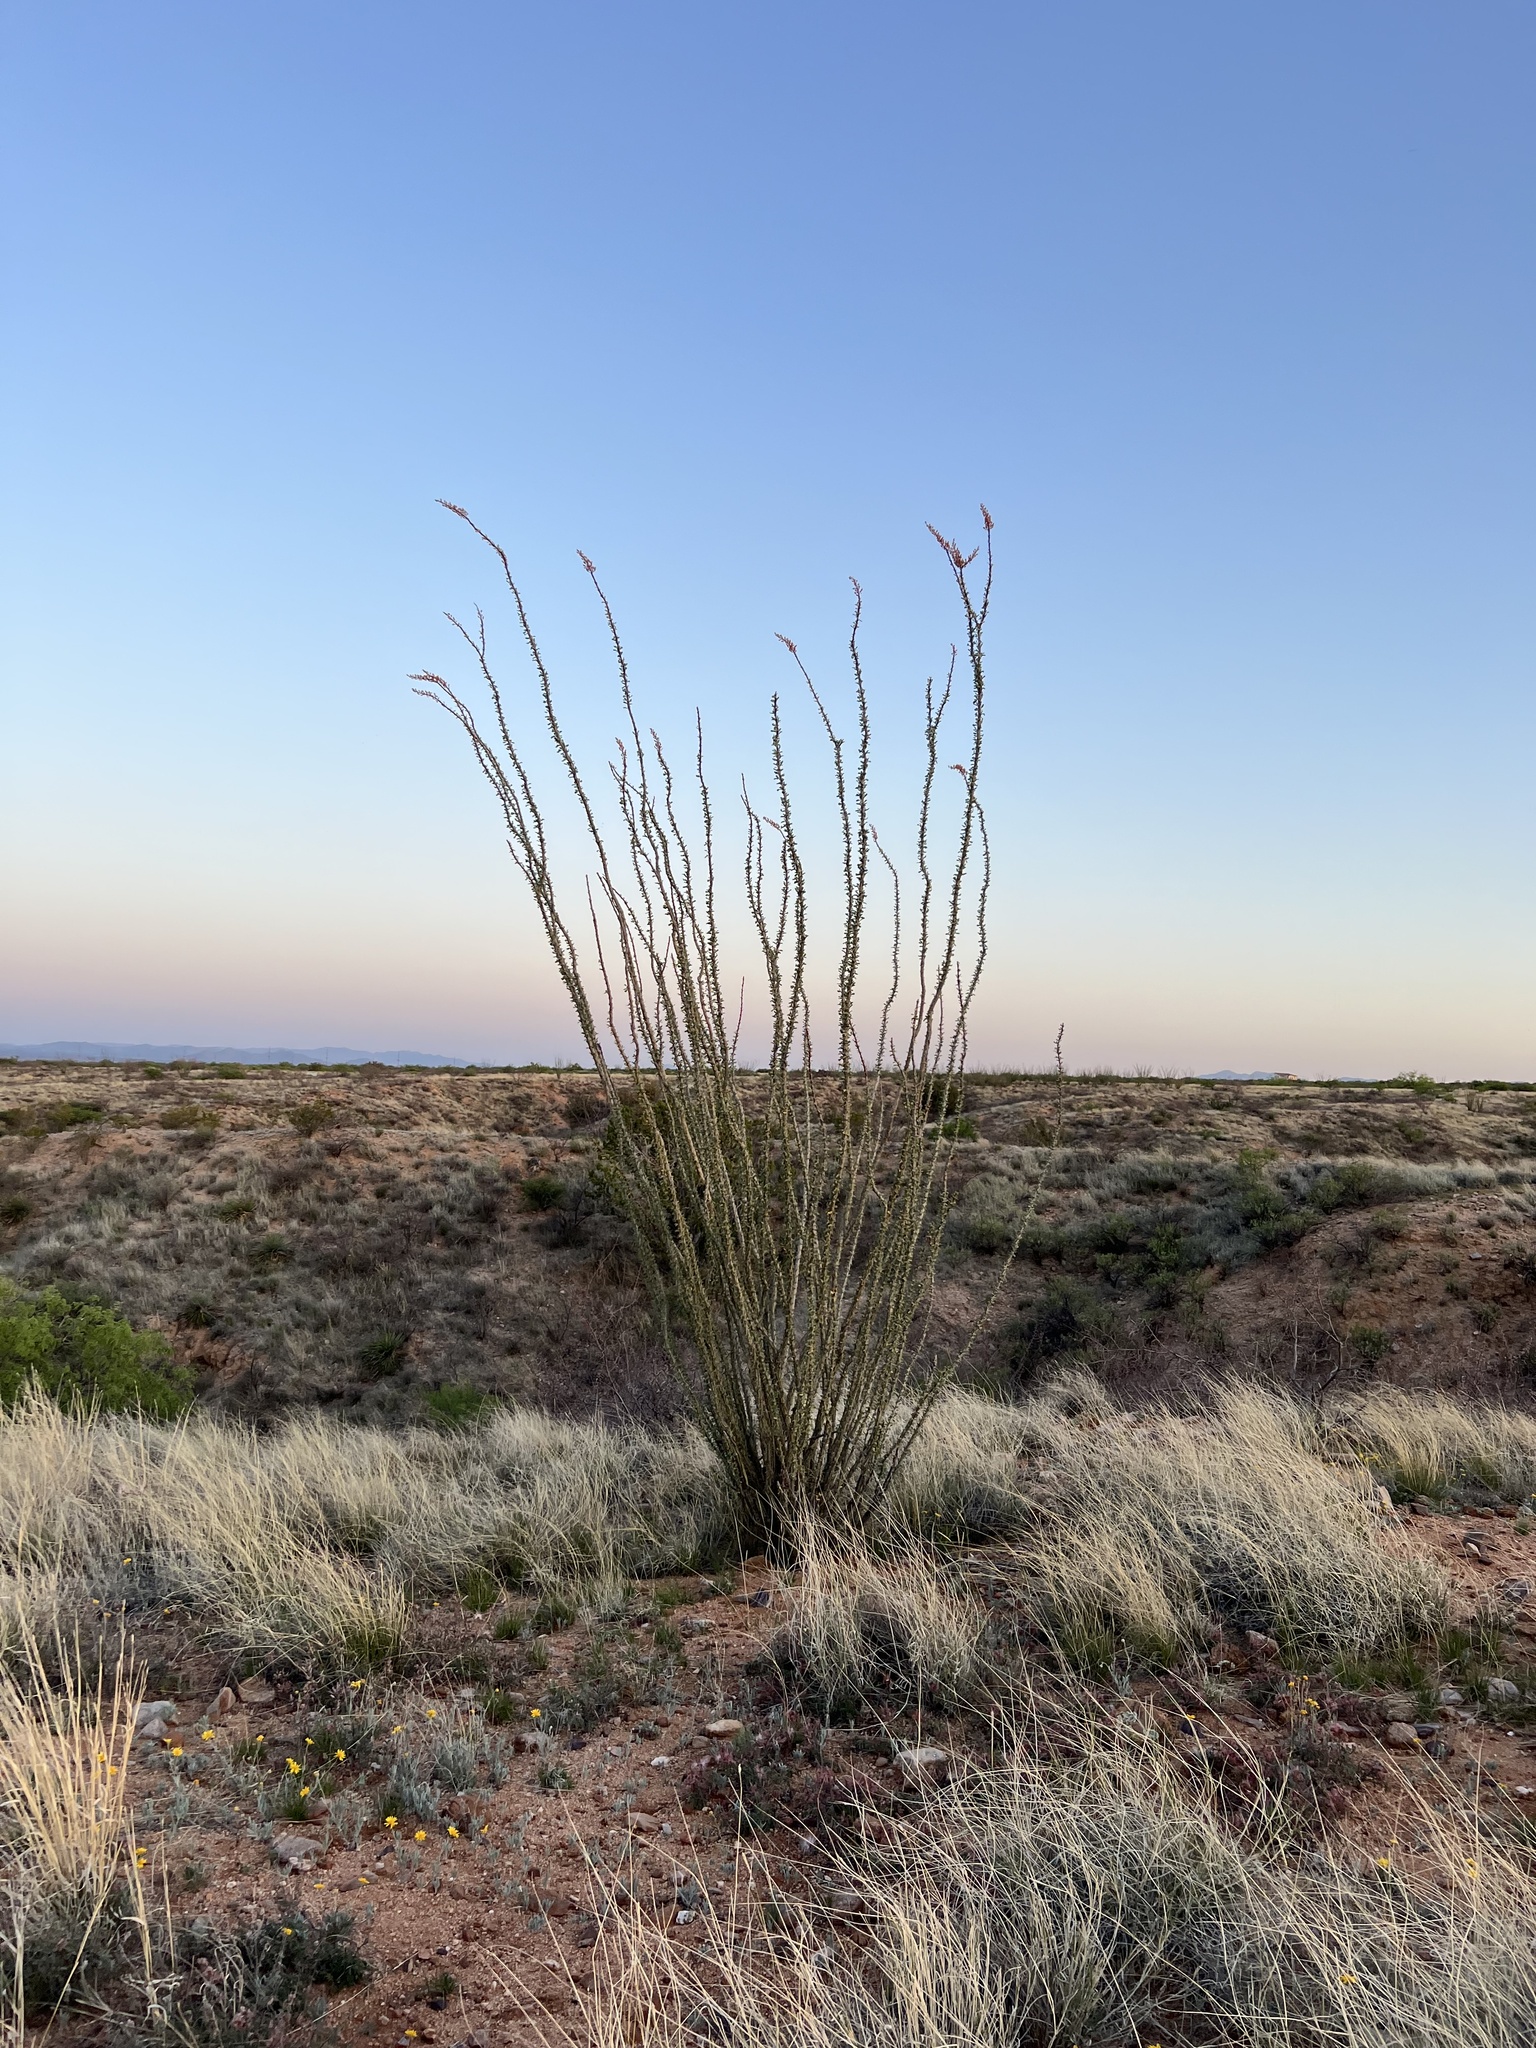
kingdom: Plantae
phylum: Tracheophyta
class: Magnoliopsida
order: Ericales
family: Fouquieriaceae
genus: Fouquieria
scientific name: Fouquieria splendens
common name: Vine-cactus
